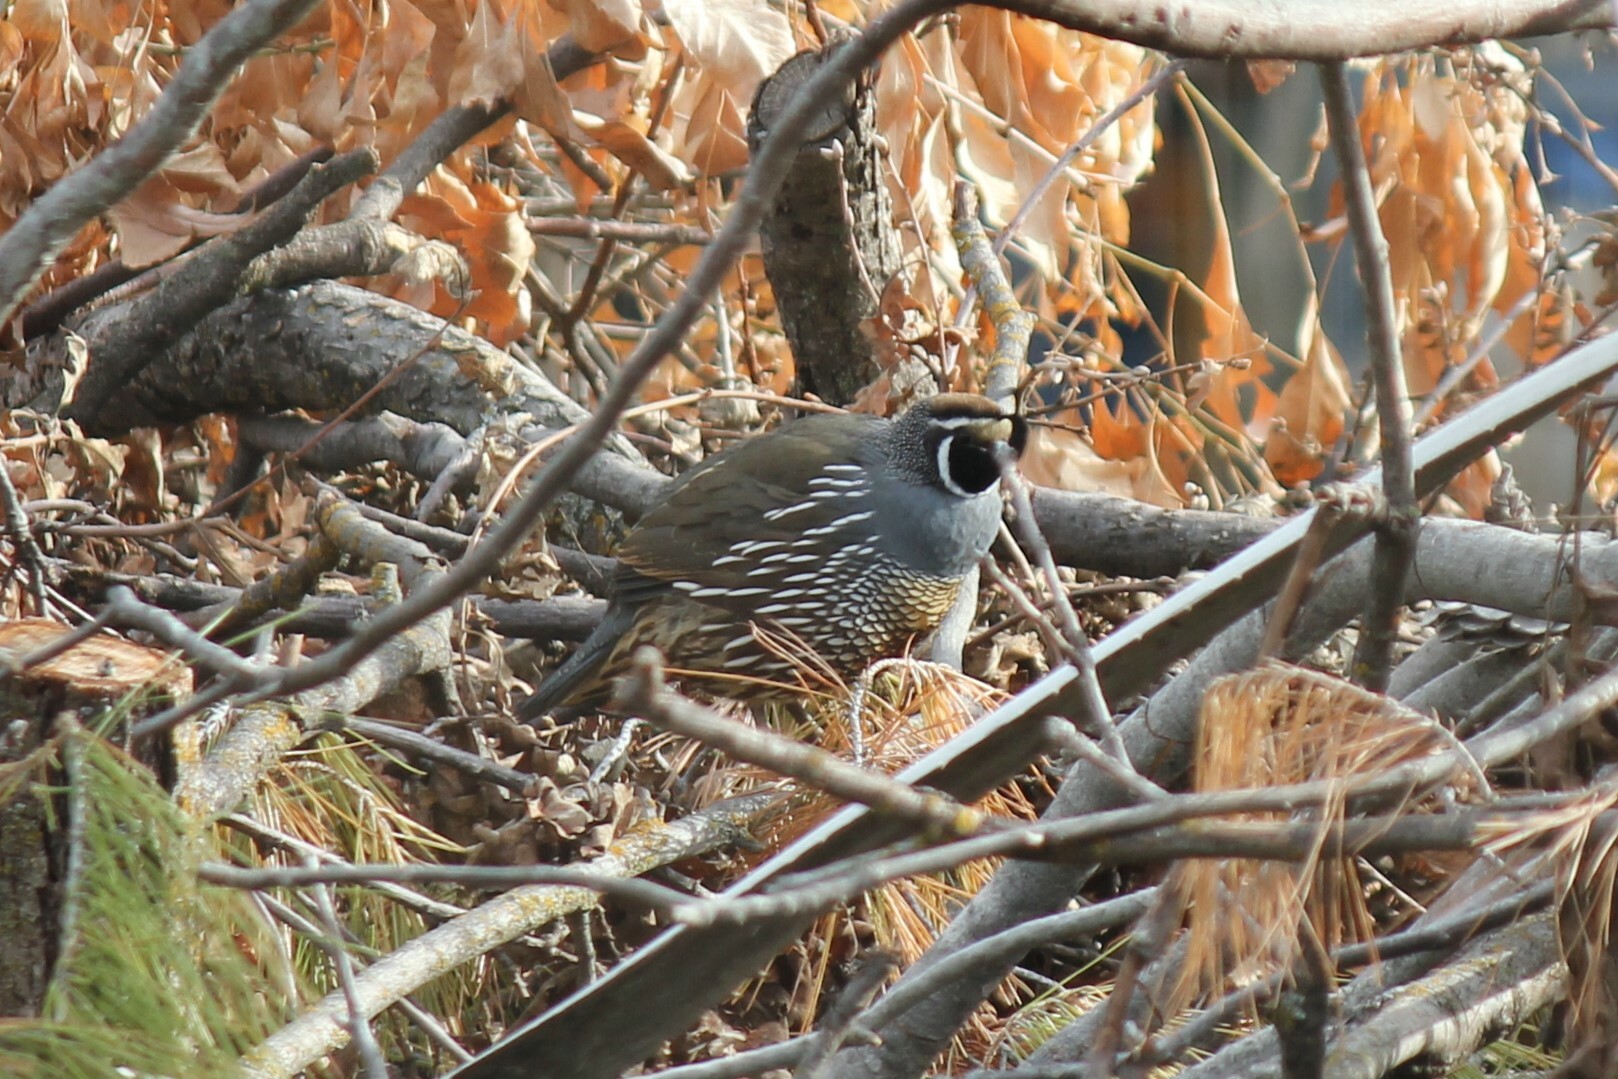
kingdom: Animalia
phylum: Chordata
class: Aves
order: Galliformes
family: Odontophoridae
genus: Callipepla
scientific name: Callipepla californica
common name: California quail
